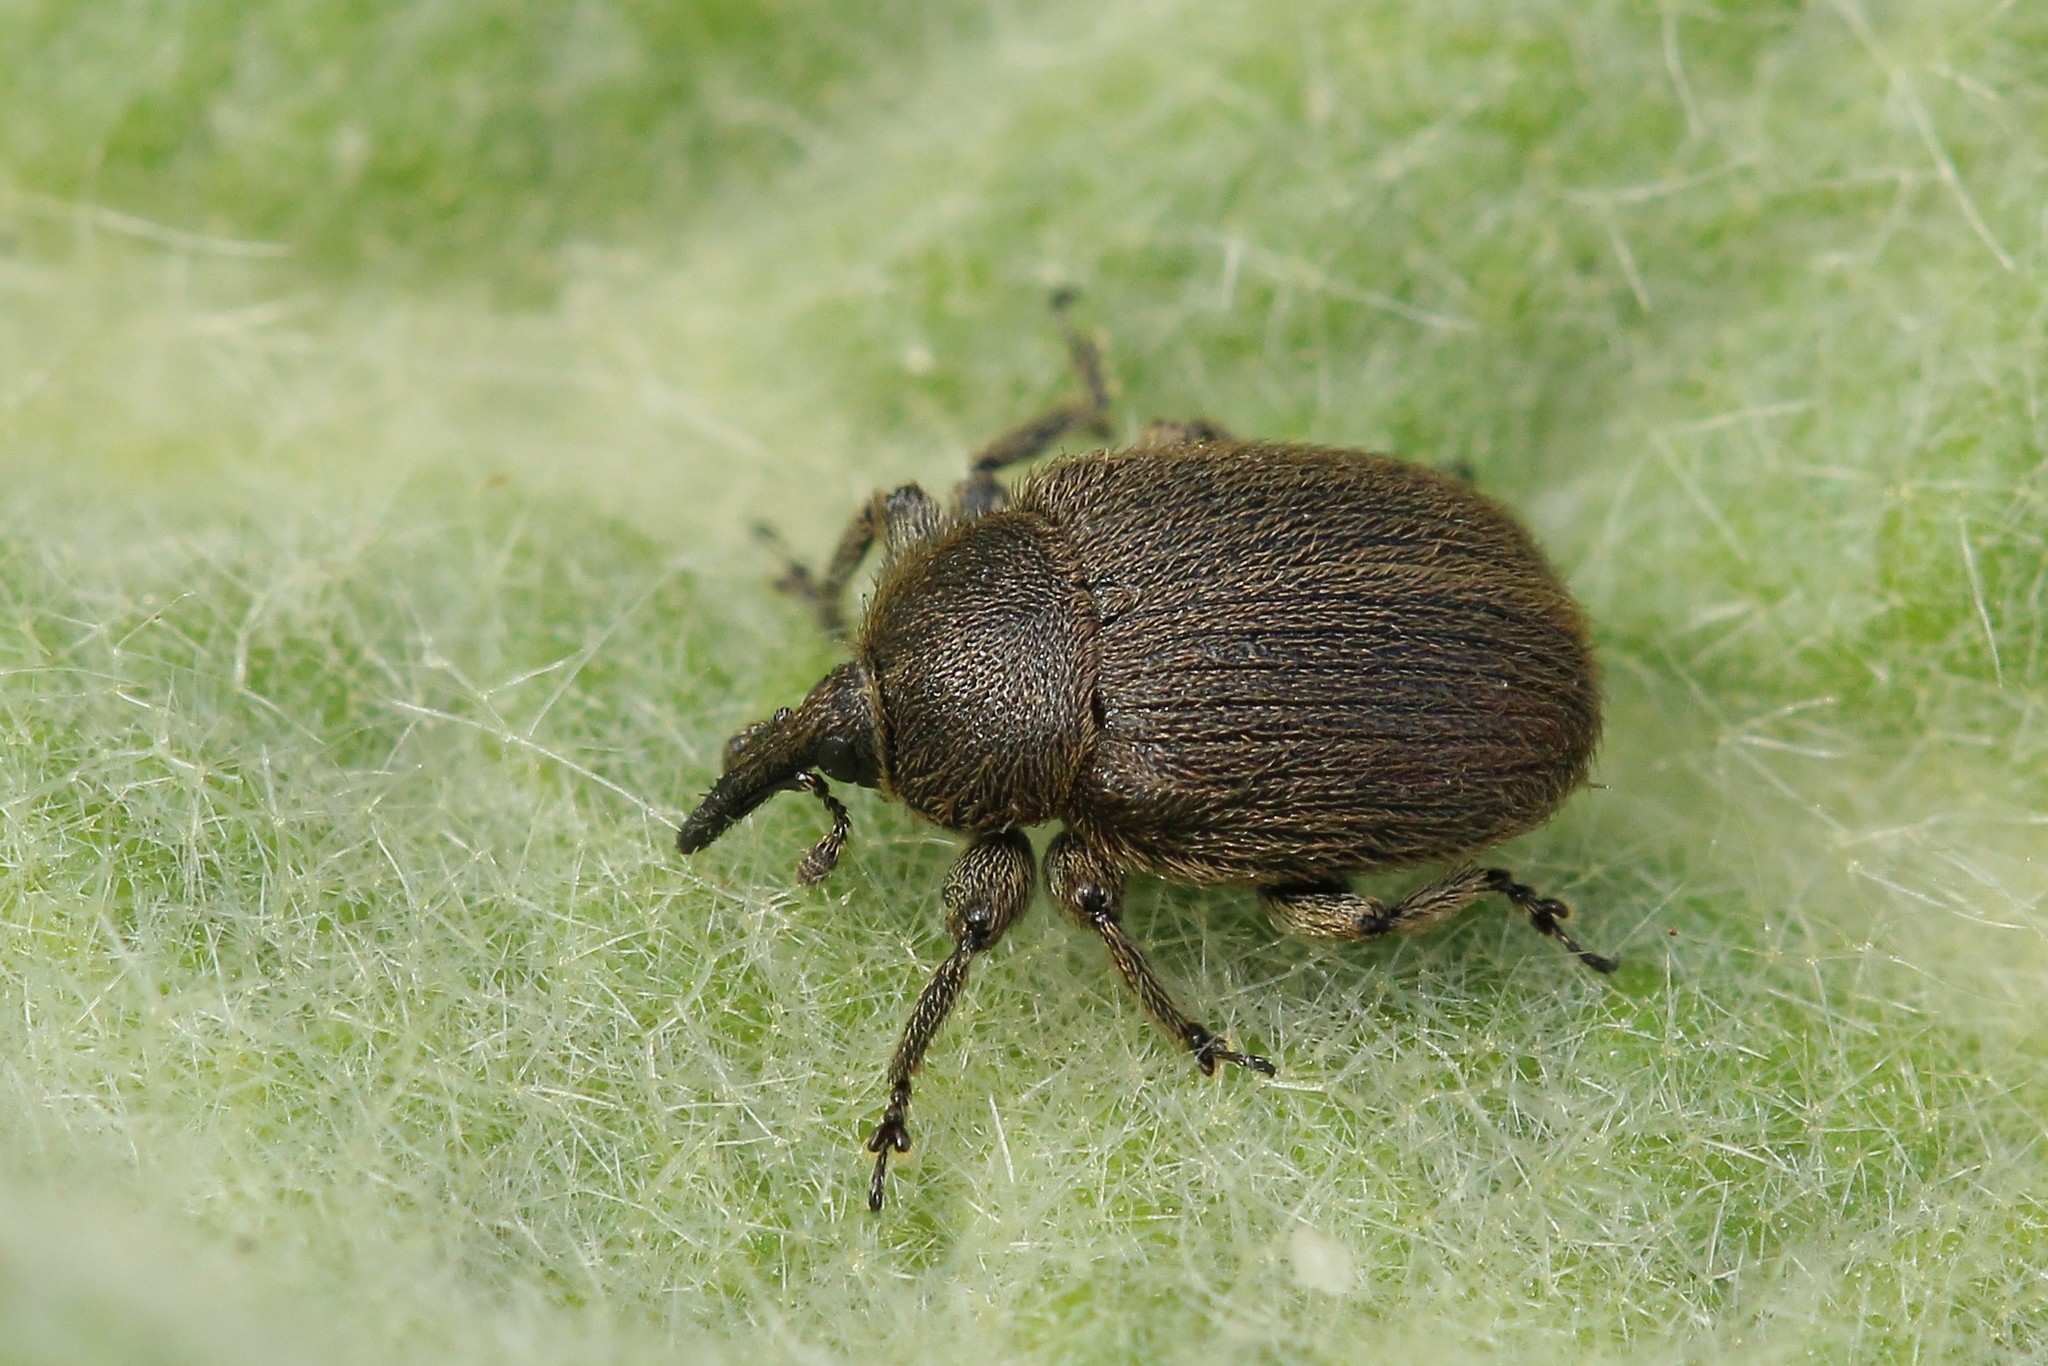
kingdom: Animalia
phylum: Arthropoda
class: Insecta
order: Coleoptera
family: Curculionidae
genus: Rhinusa
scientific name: Rhinusa tetra
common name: Weevil
